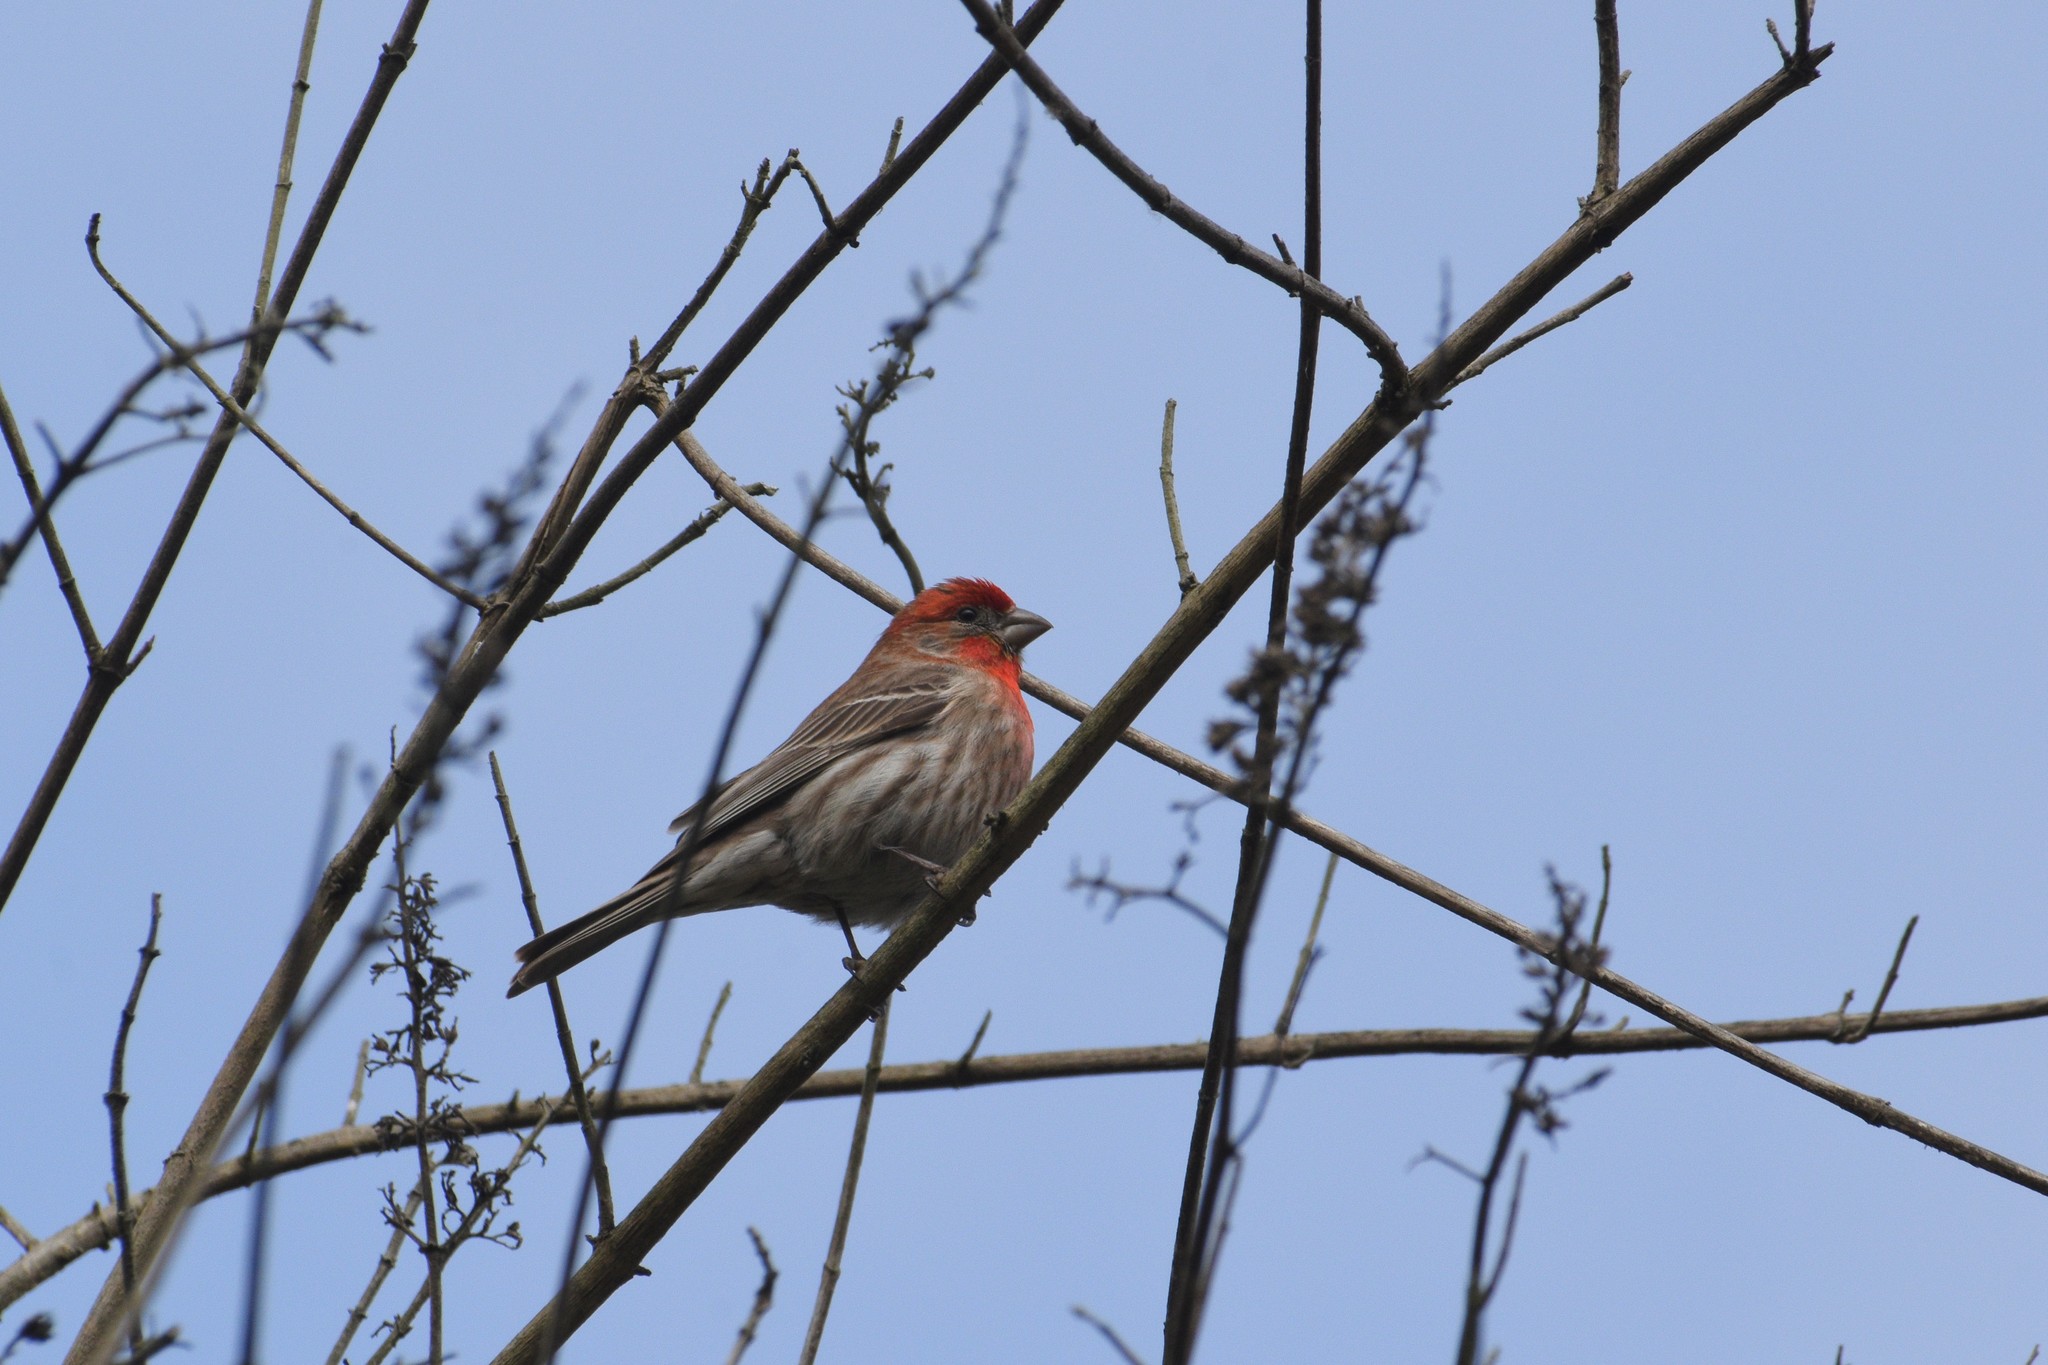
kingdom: Animalia
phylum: Chordata
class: Aves
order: Passeriformes
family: Fringillidae
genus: Haemorhous
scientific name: Haemorhous mexicanus
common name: House finch
